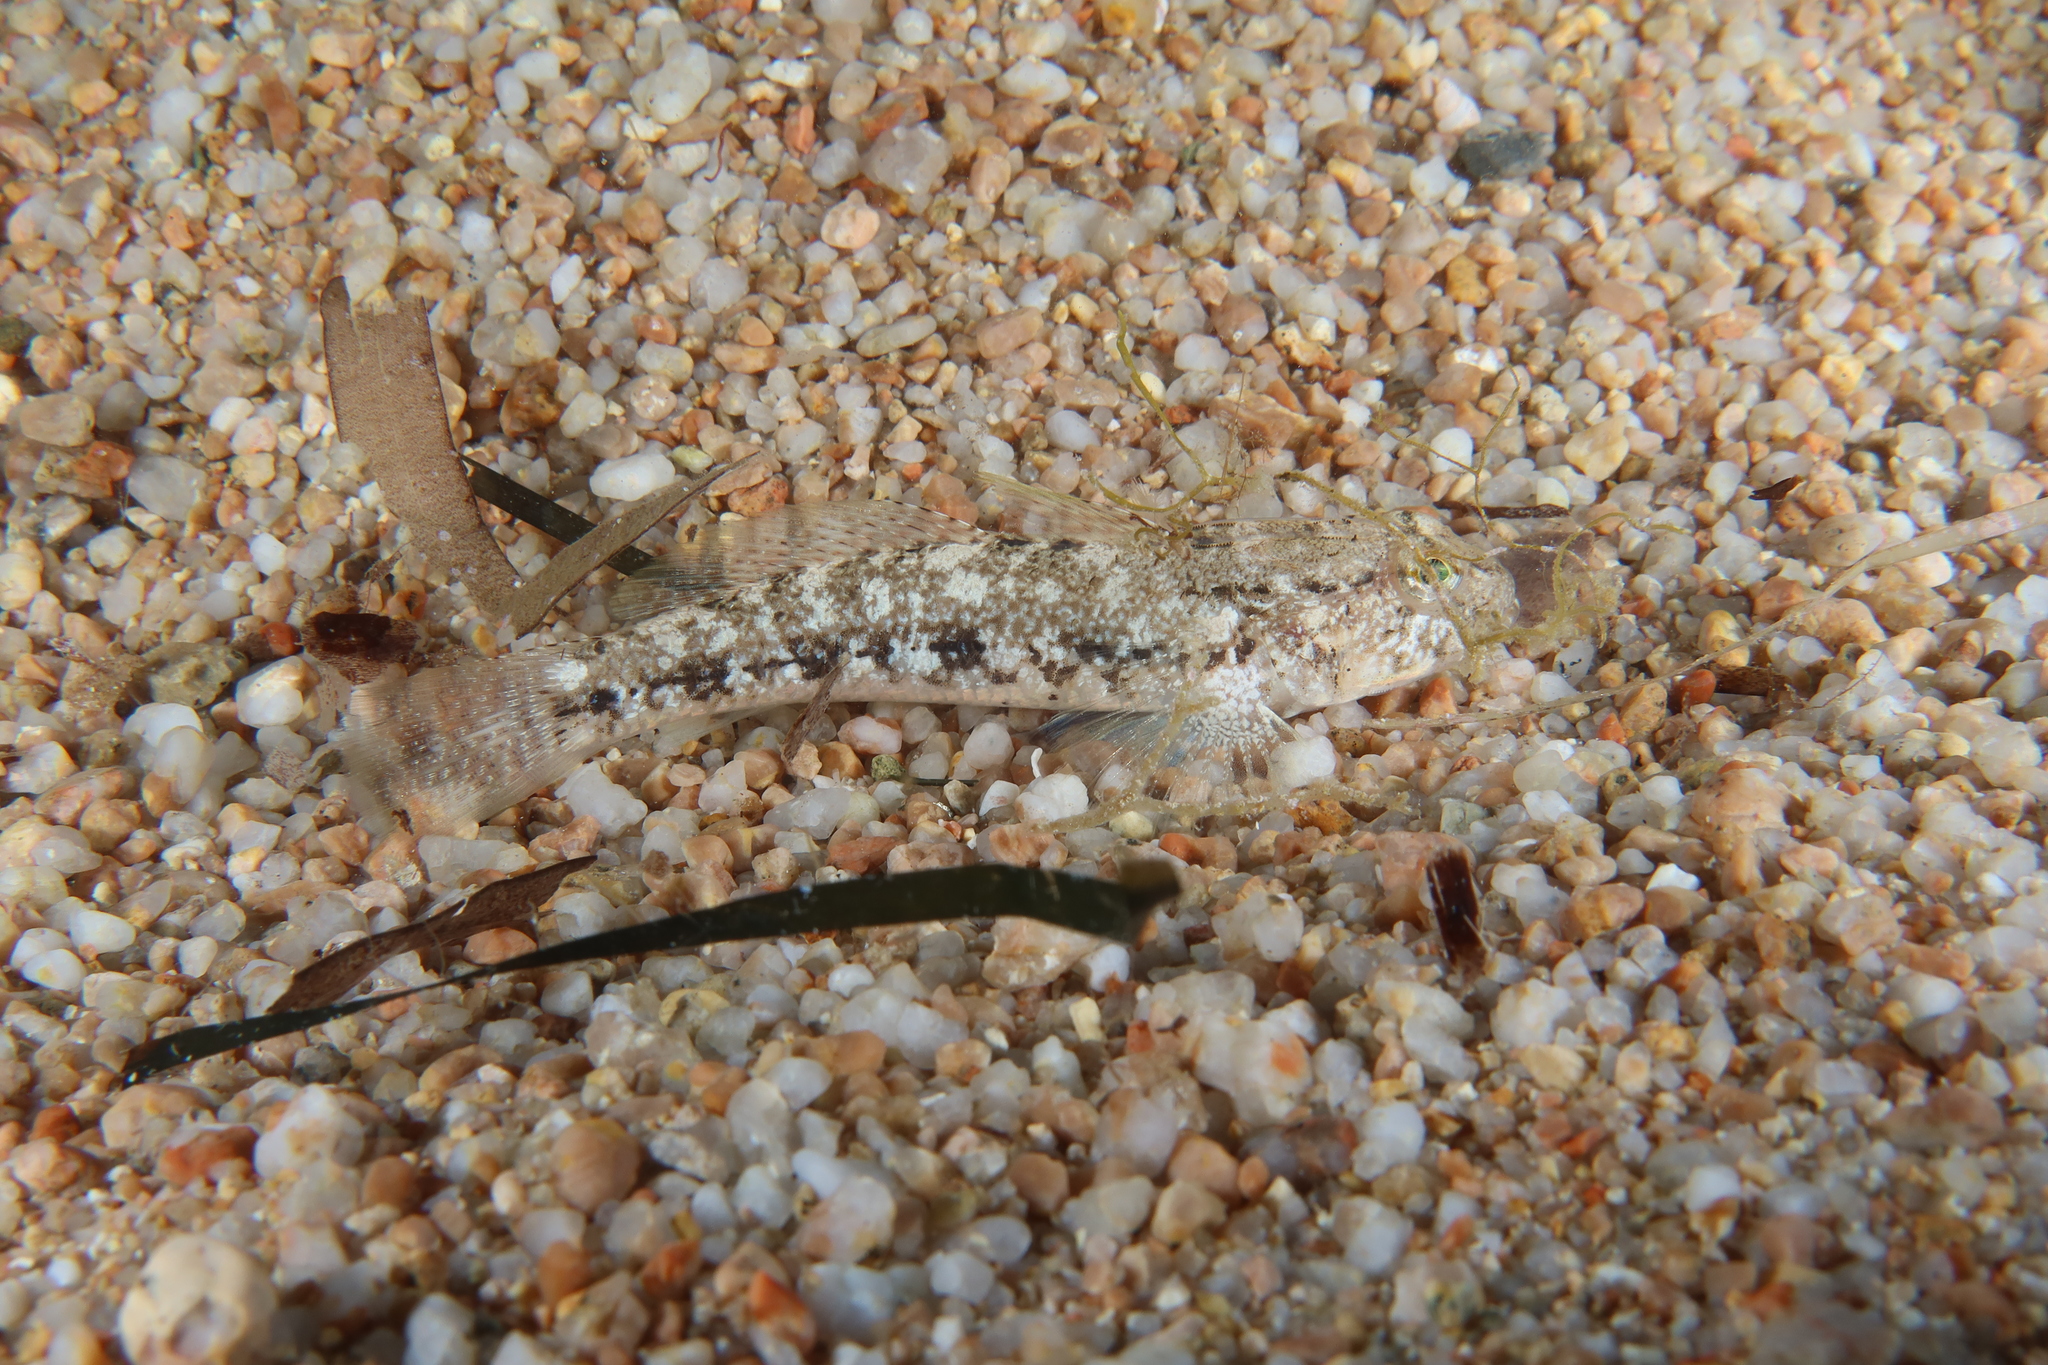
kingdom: Animalia
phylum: Chordata
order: Perciformes
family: Gobiidae
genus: Gobius
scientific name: Gobius niger
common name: Black goby
